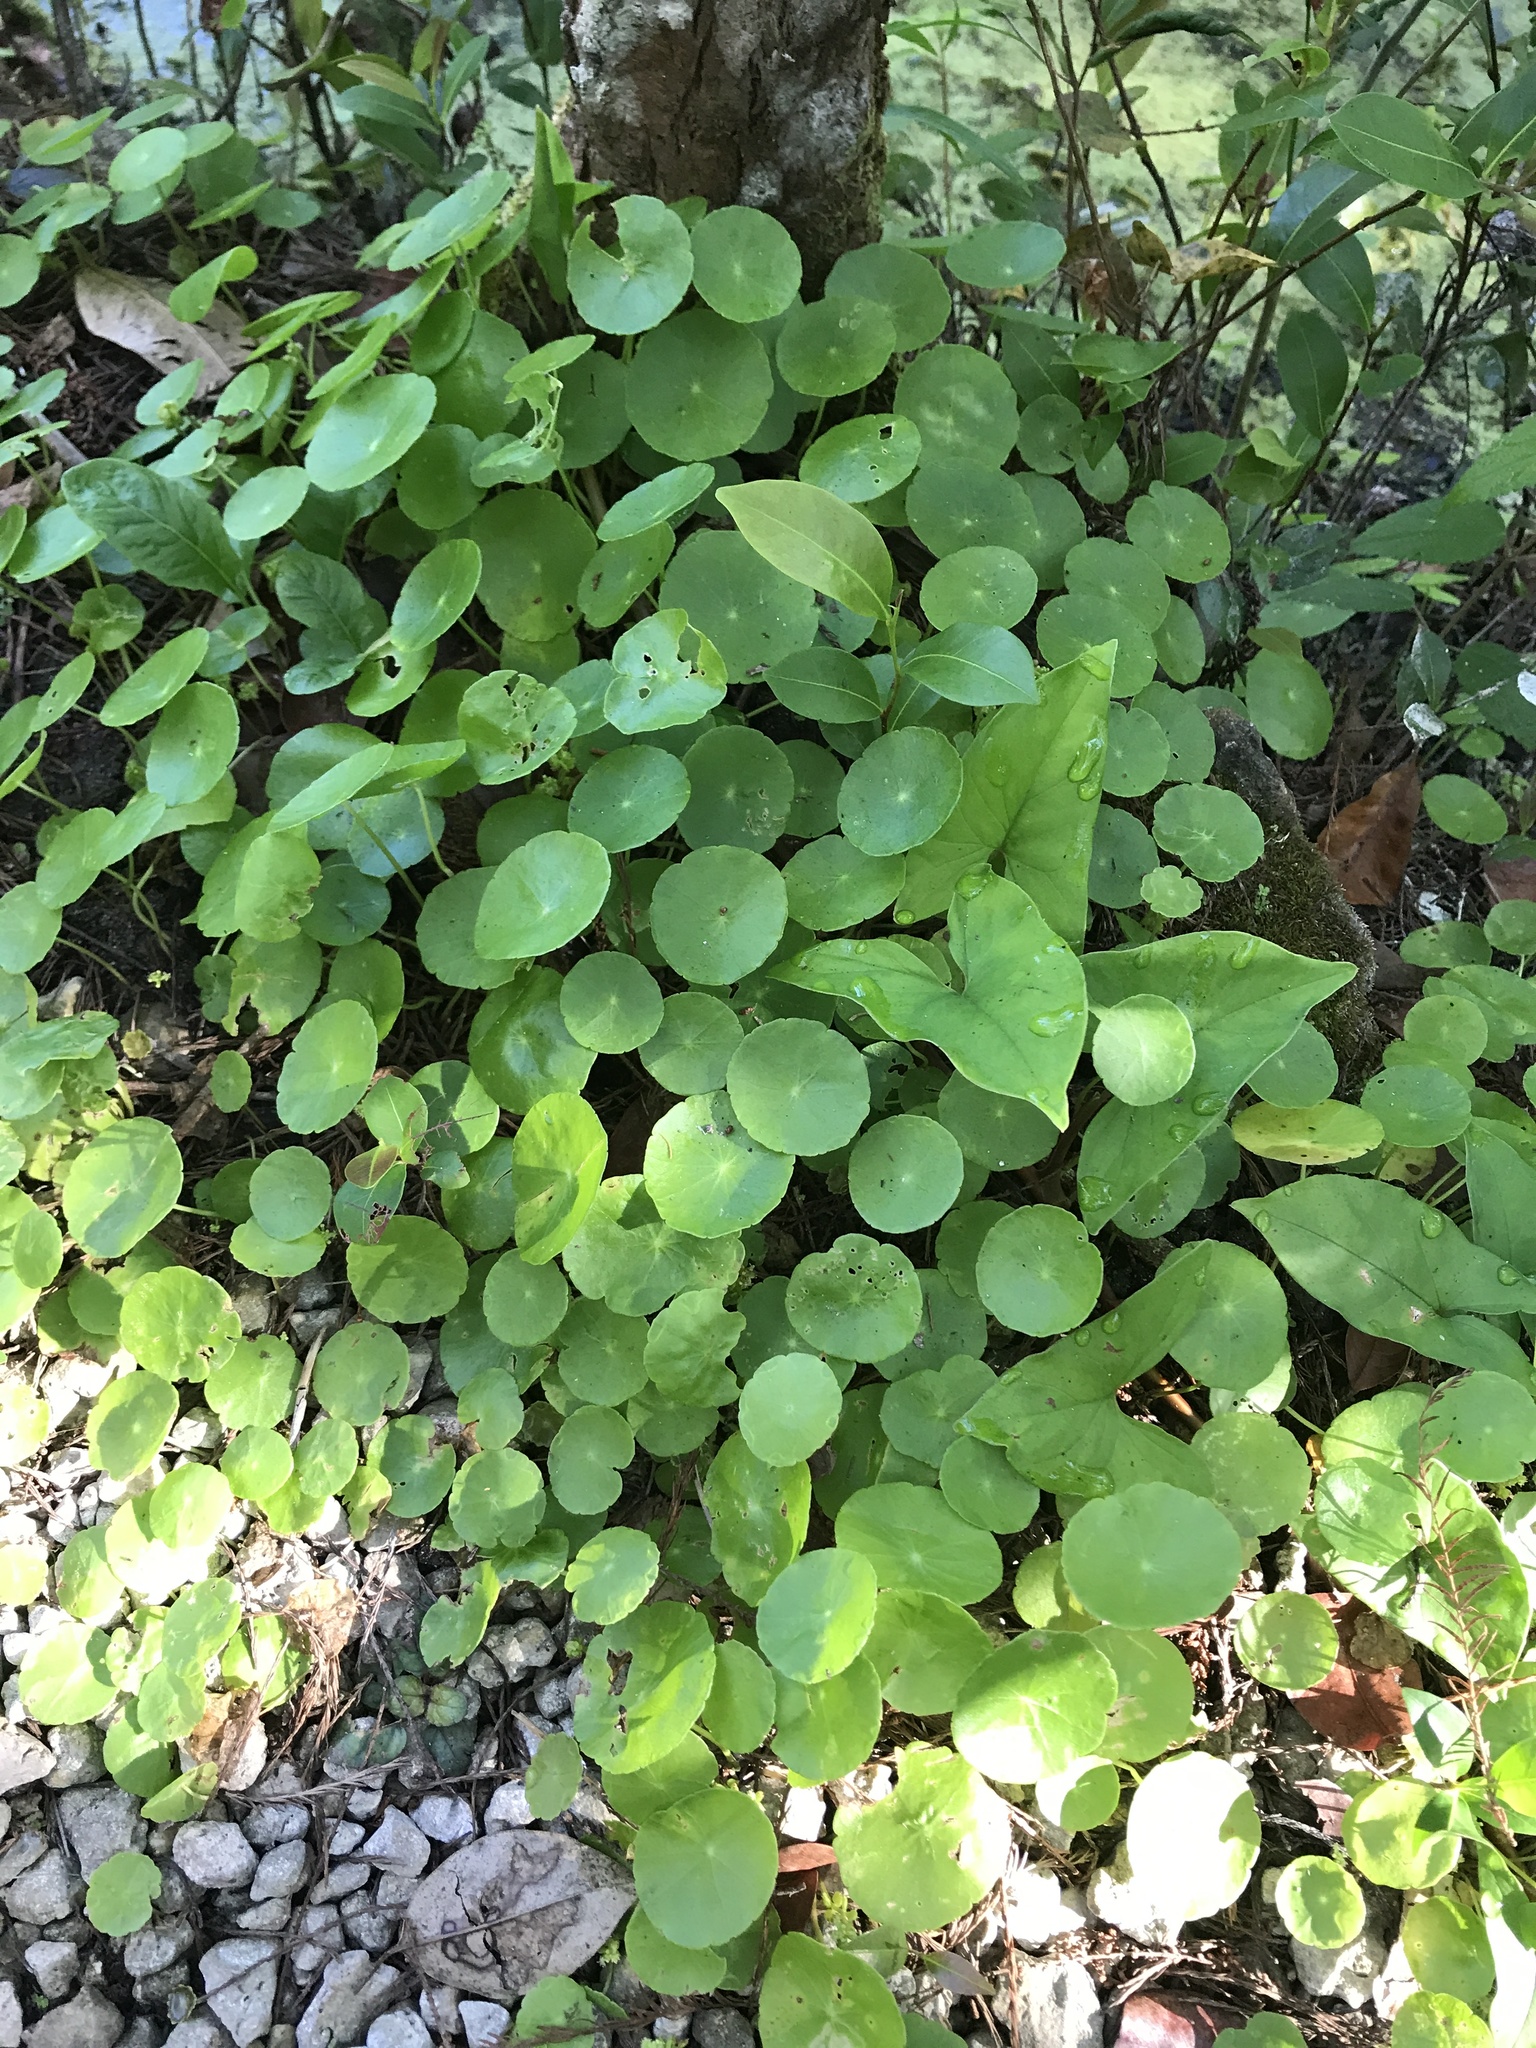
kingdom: Plantae
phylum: Tracheophyta
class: Magnoliopsida
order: Apiales
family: Araliaceae
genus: Hydrocotyle
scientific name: Hydrocotyle verticillata
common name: Whorled marshpennywort
